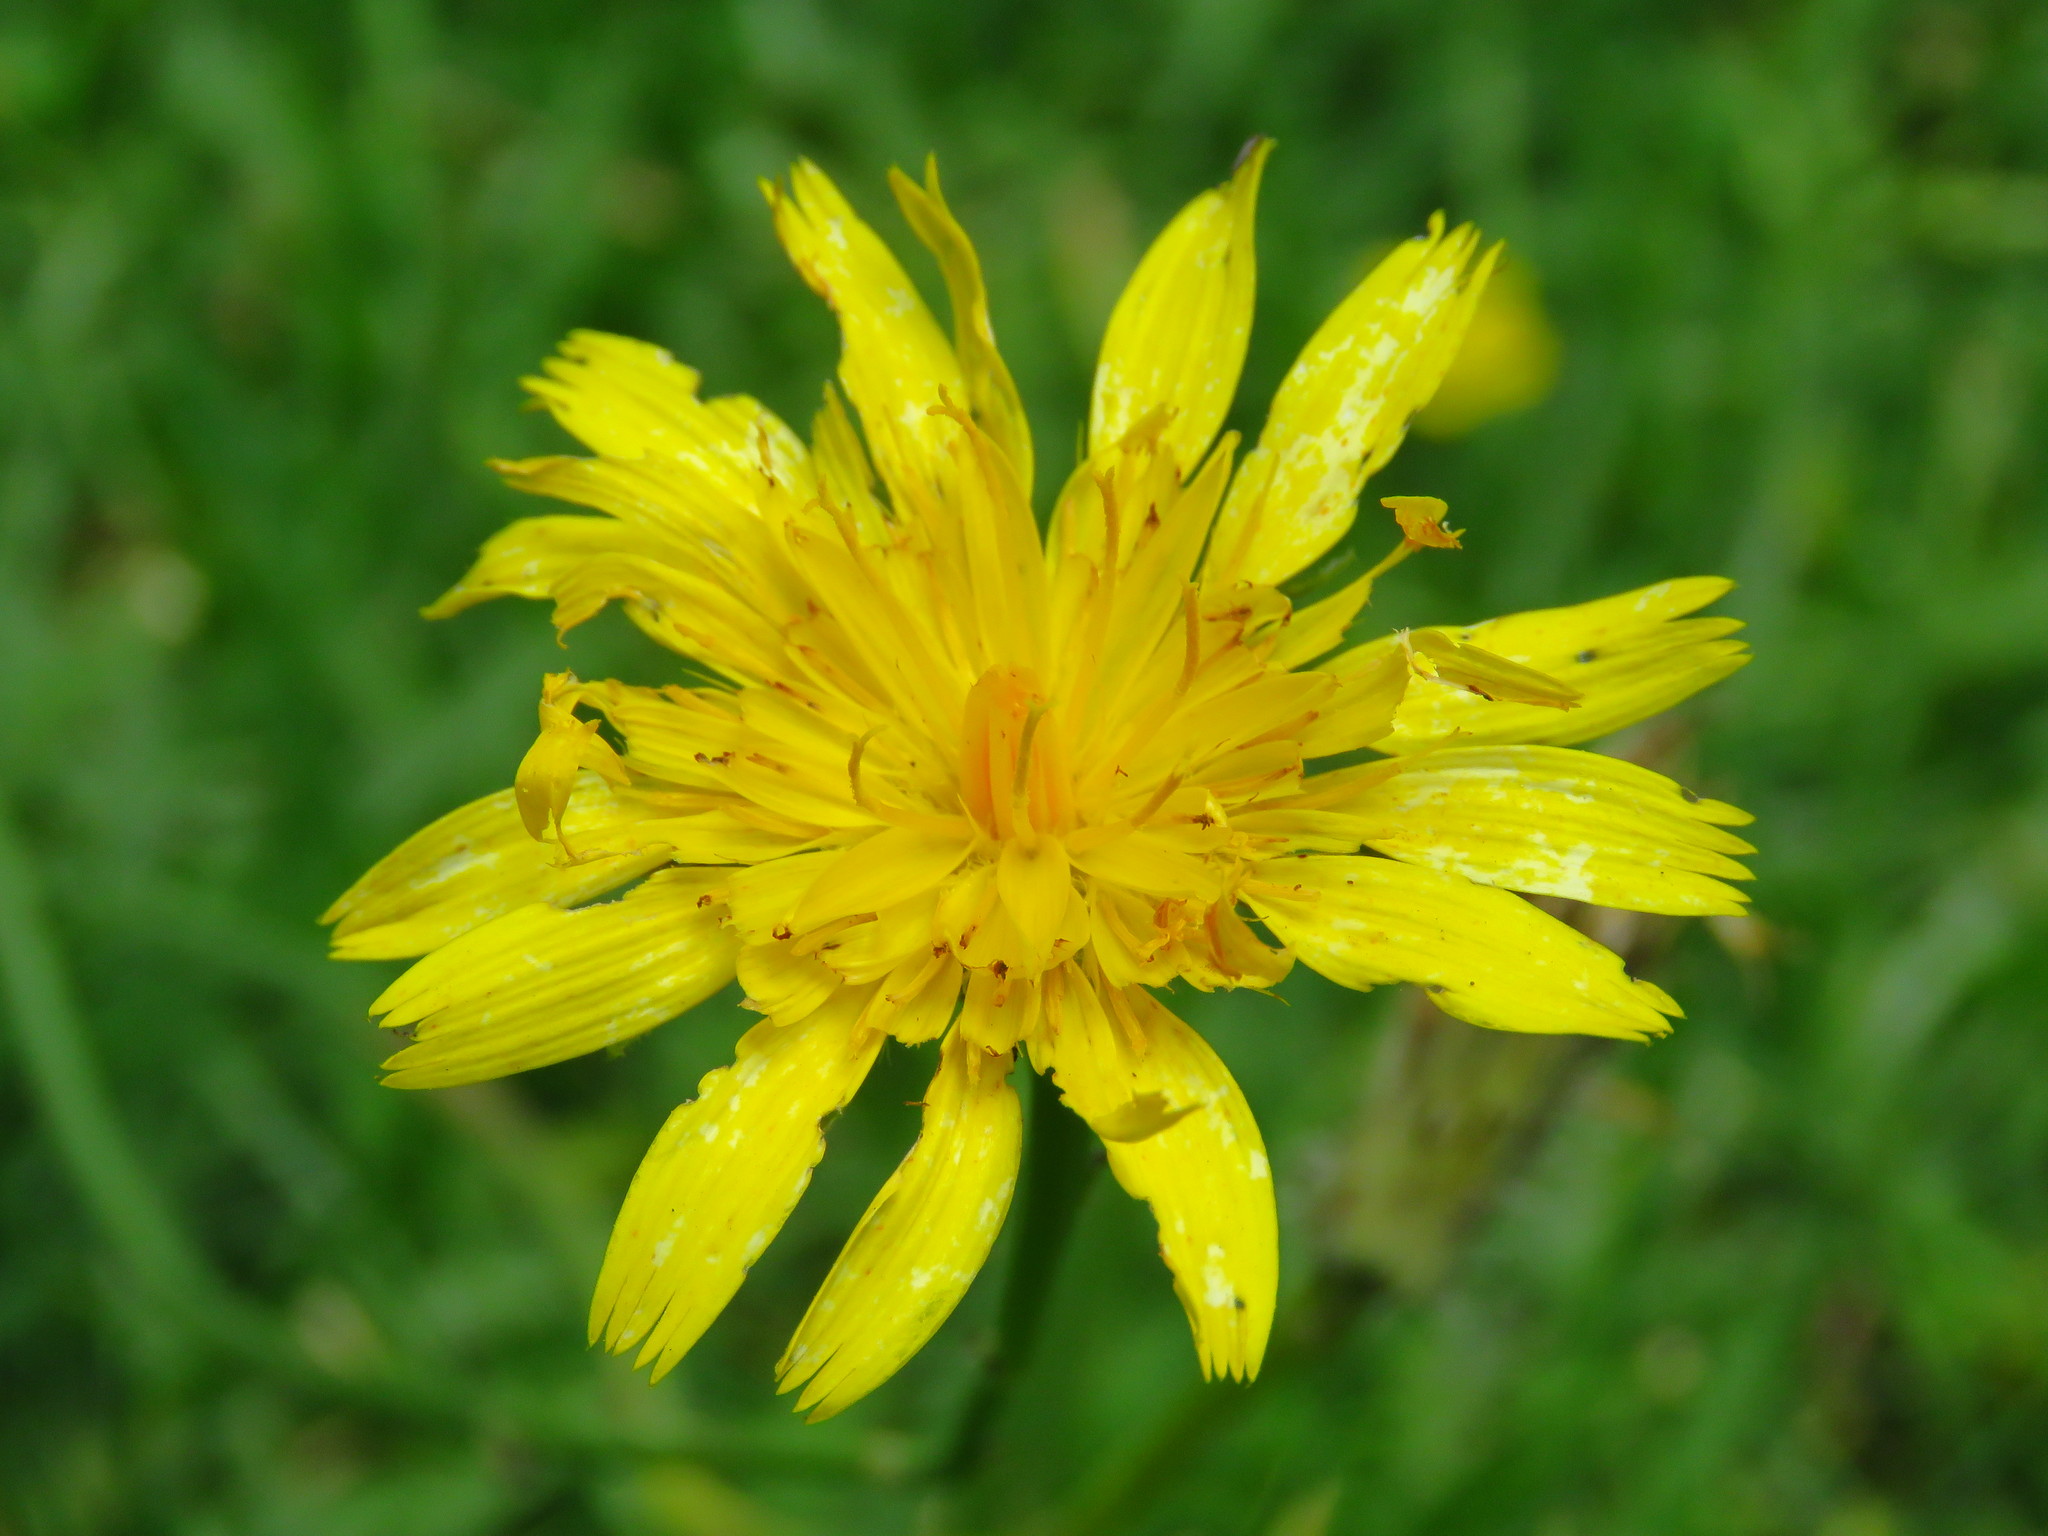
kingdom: Plantae
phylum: Tracheophyta
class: Magnoliopsida
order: Asterales
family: Asteraceae
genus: Hypochaeris
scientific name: Hypochaeris radicata
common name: Flatweed
